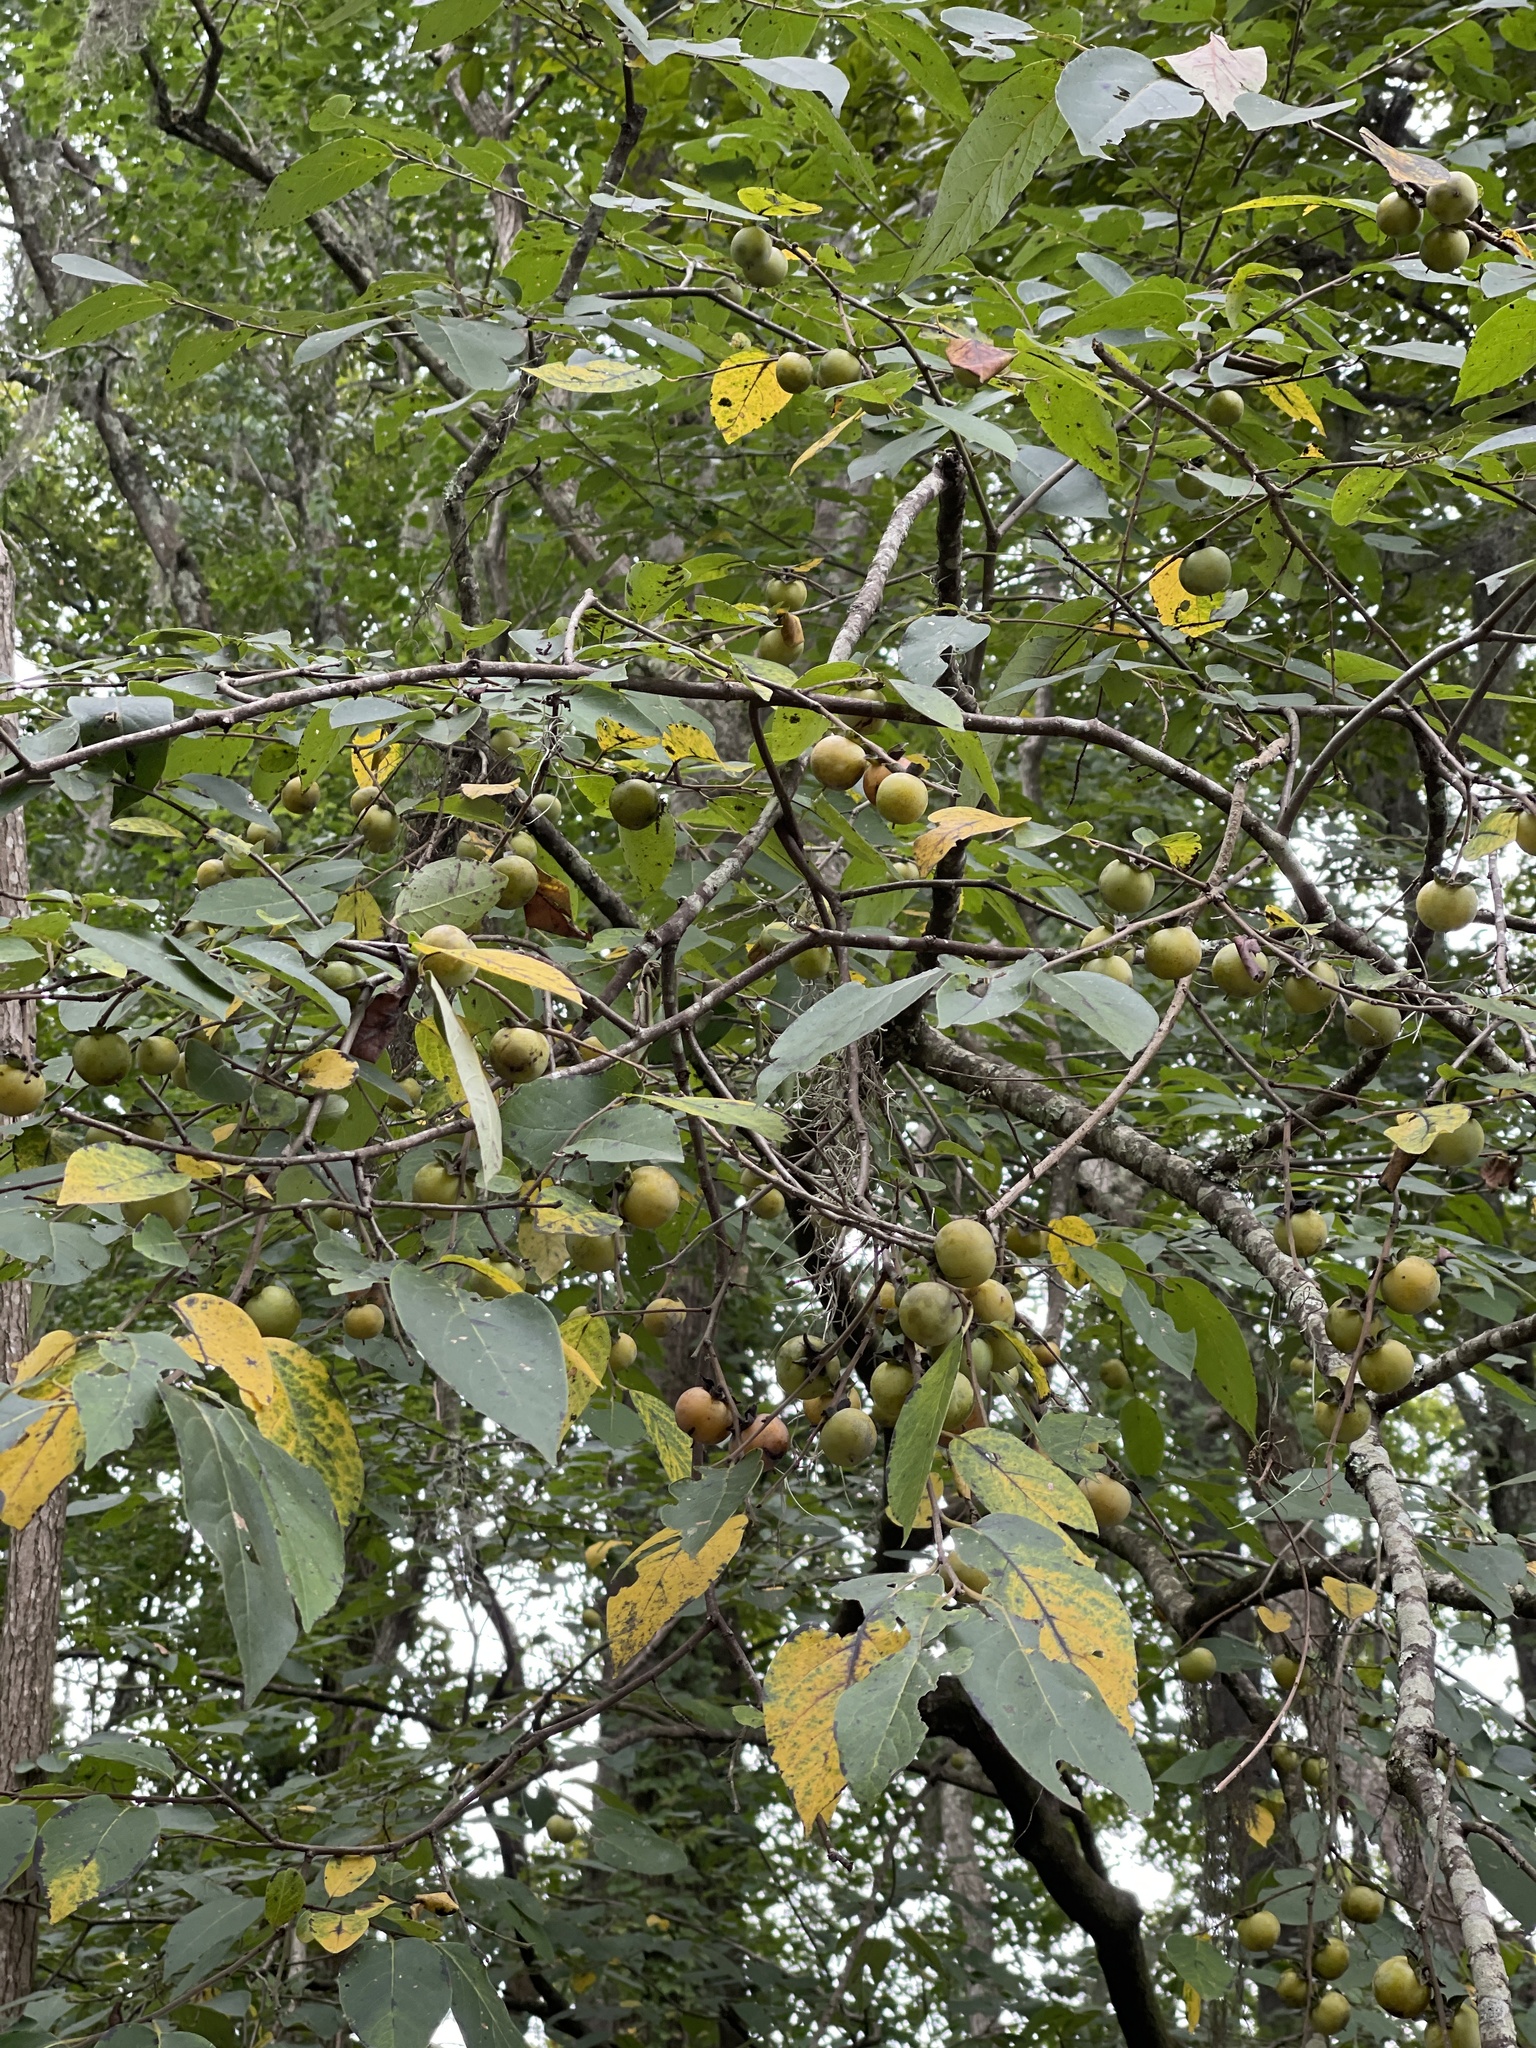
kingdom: Plantae
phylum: Tracheophyta
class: Magnoliopsida
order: Ericales
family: Ebenaceae
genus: Diospyros
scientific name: Diospyros virginiana
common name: Persimmon
